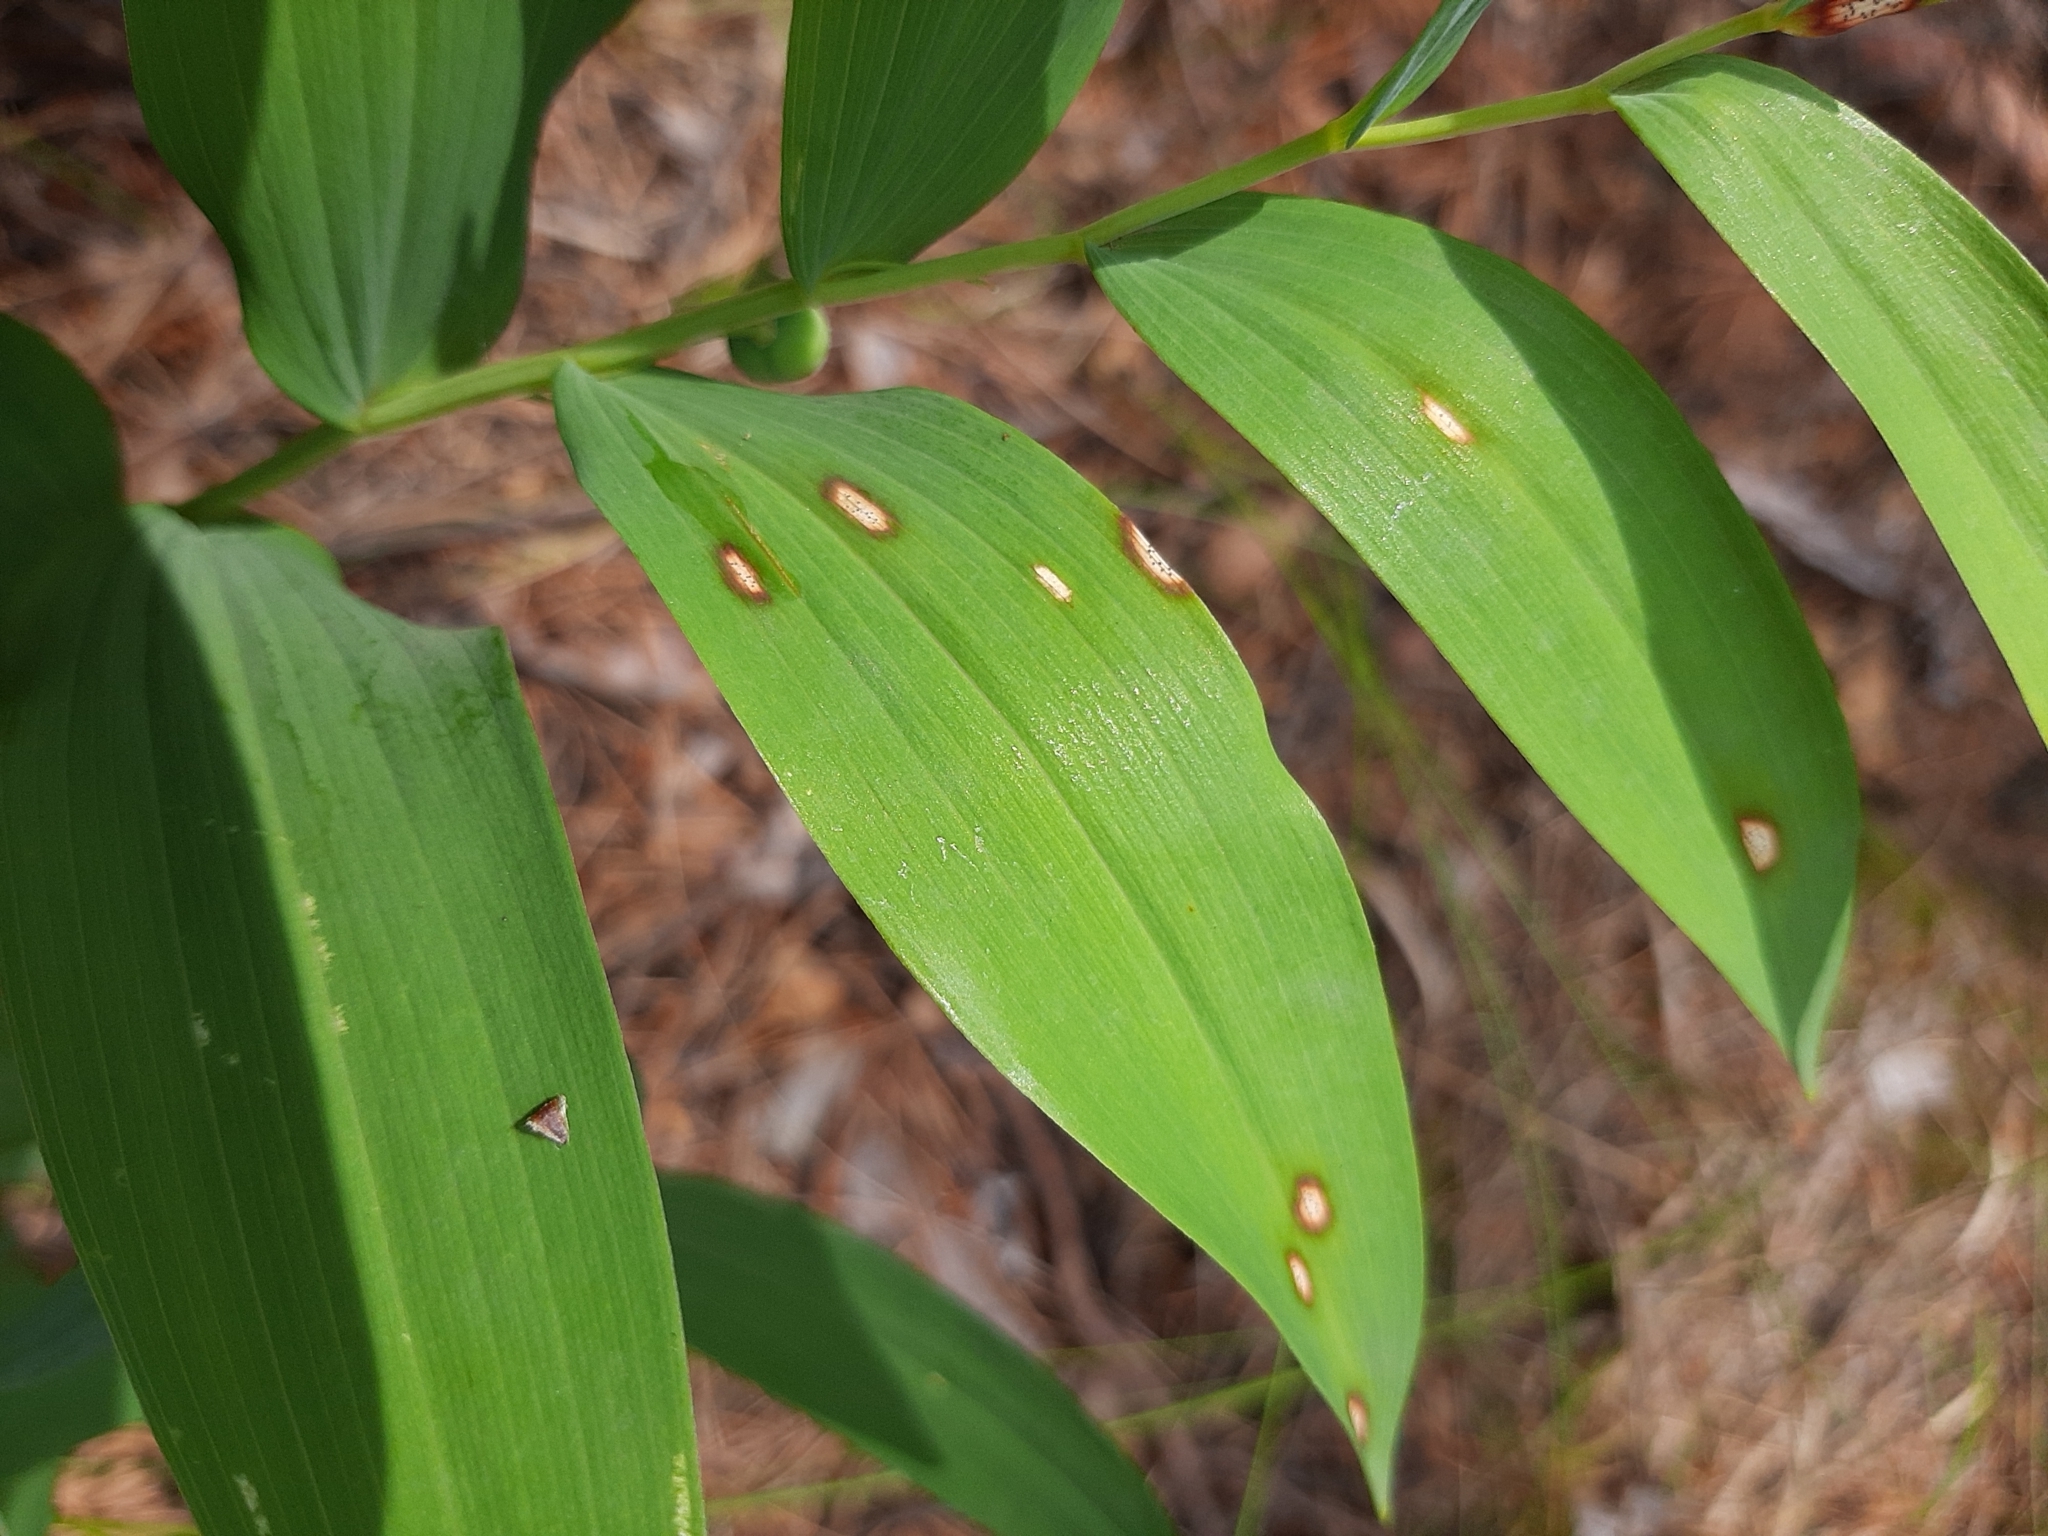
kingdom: Fungi
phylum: Ascomycota
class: Dothideomycetes
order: Botryosphaeriales
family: Phyllostictaceae
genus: Phyllosticta
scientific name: Phyllosticta convallariae
